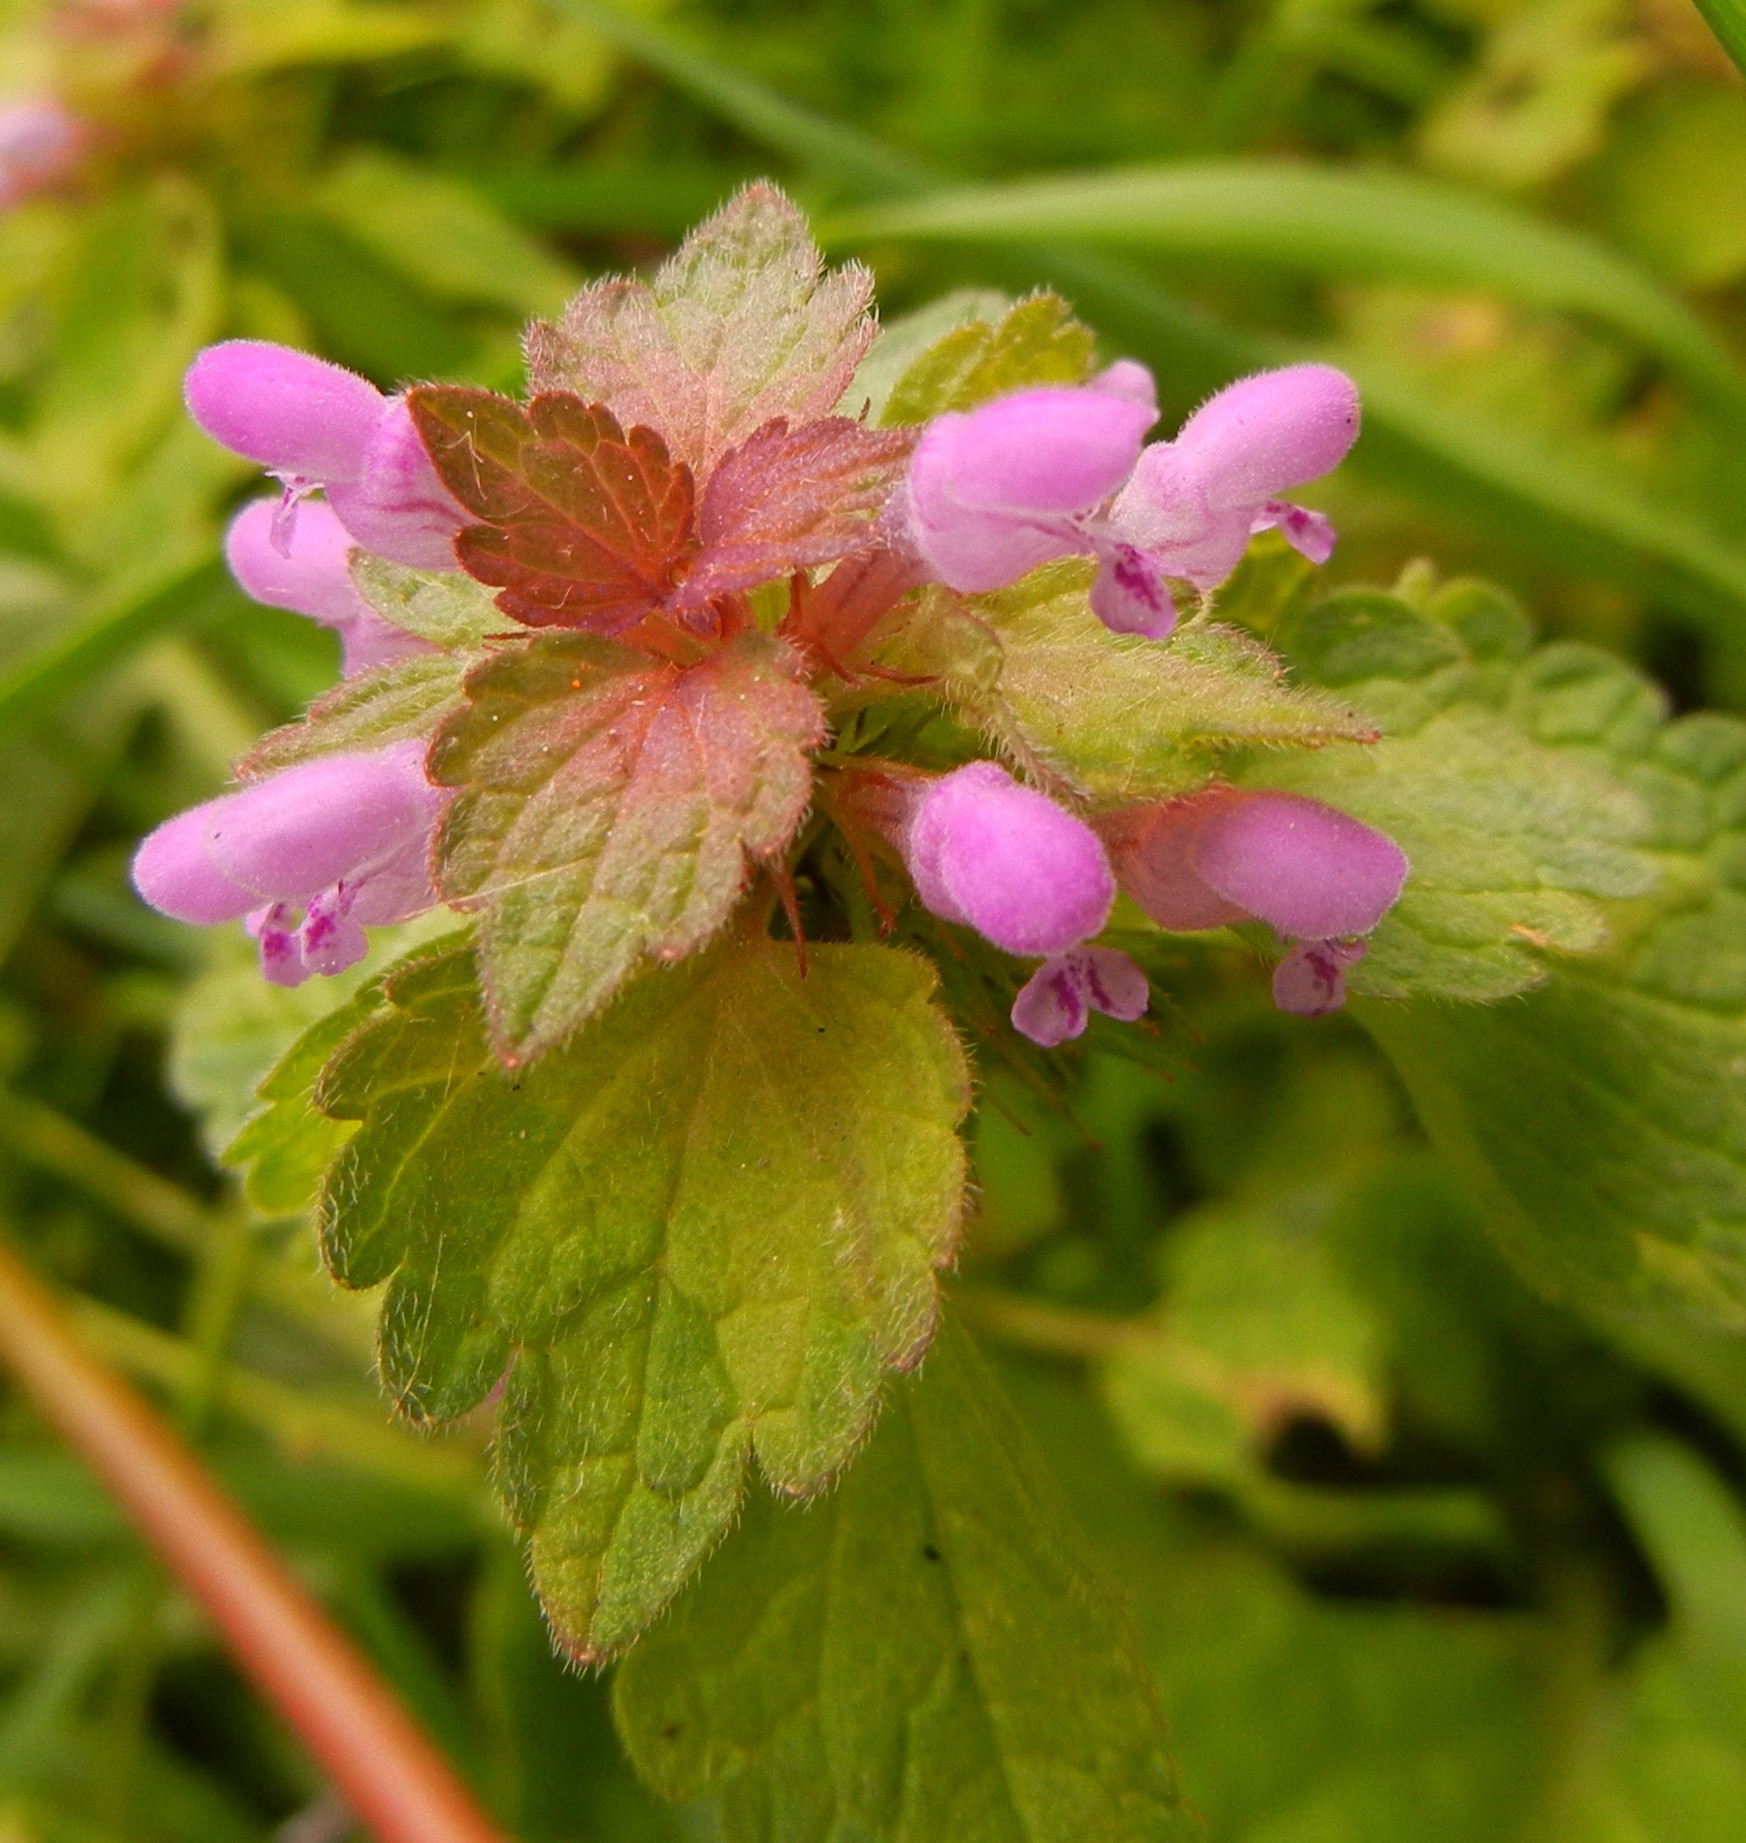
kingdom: Plantae
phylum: Tracheophyta
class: Magnoliopsida
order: Lamiales
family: Lamiaceae
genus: Lamium
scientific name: Lamium purpureum
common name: Red dead-nettle
